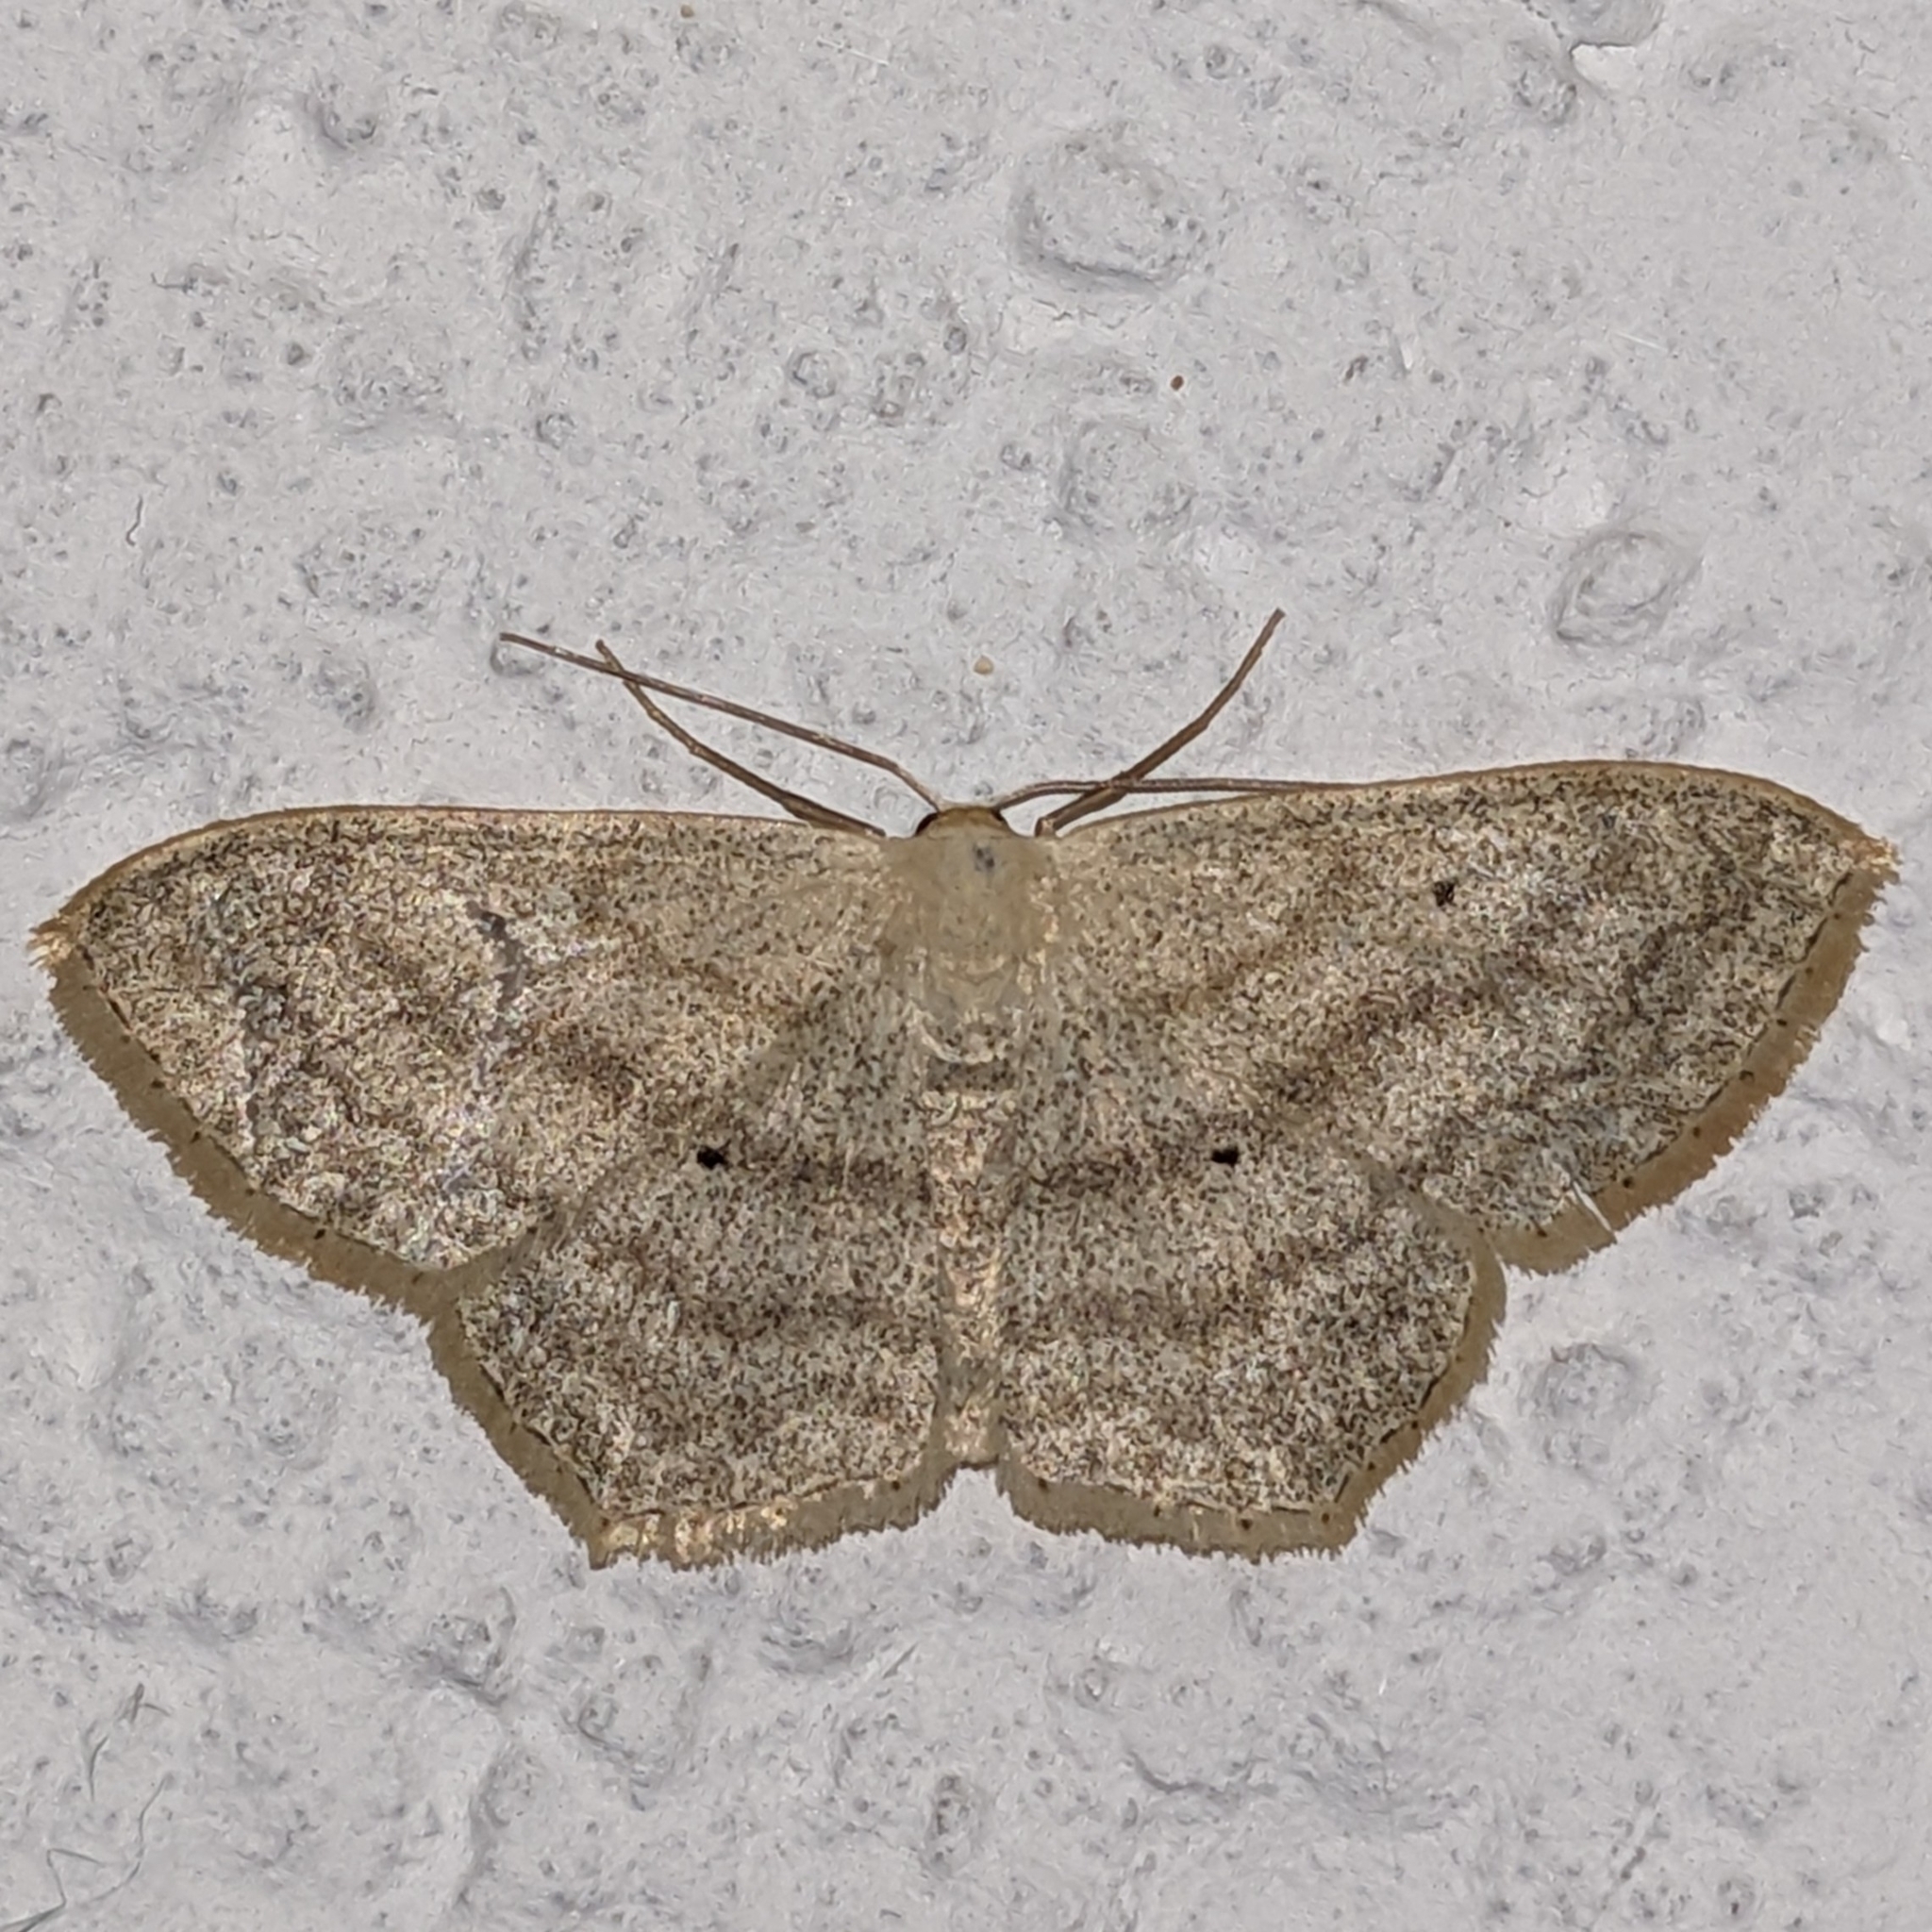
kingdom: Animalia
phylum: Arthropoda
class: Insecta
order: Lepidoptera
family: Geometridae
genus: Scopula
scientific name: Scopula nigropunctata
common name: Sub-angled wave
